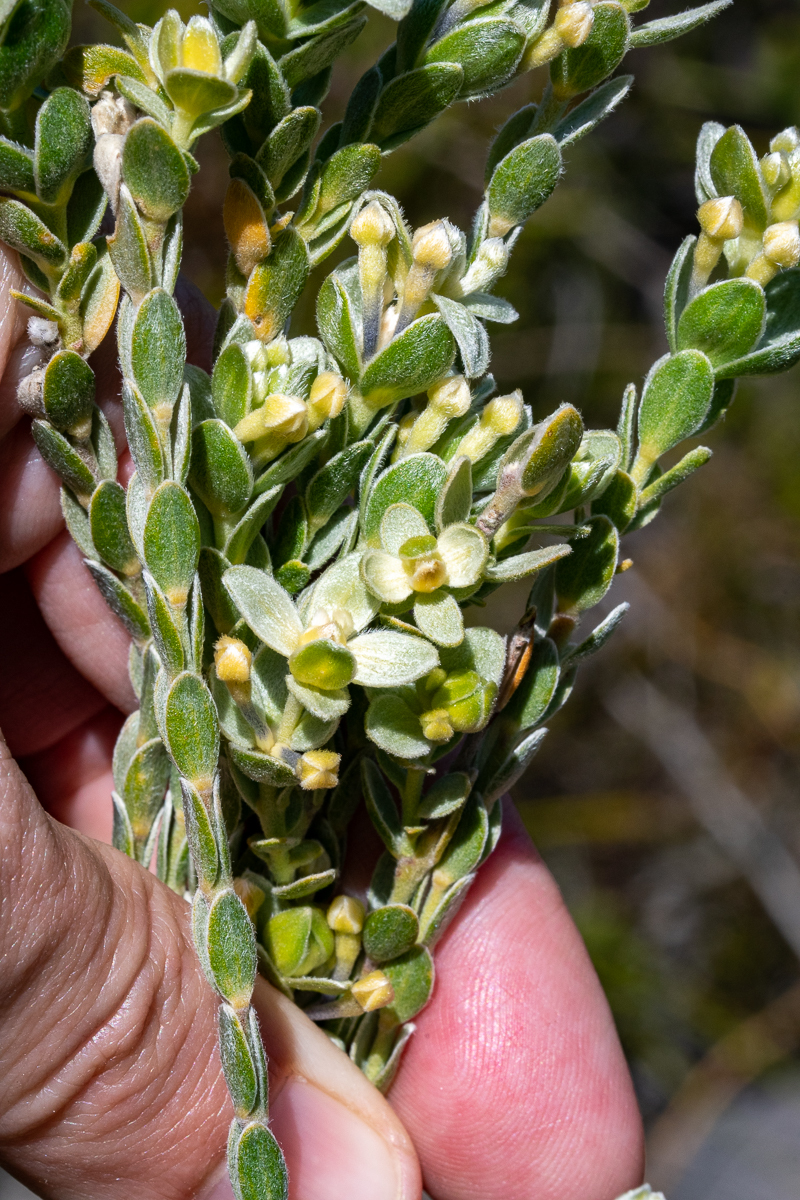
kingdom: Plantae
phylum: Tracheophyta
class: Magnoliopsida
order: Malvales
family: Thymelaeaceae
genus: Gnidia
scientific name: Gnidia anomala
